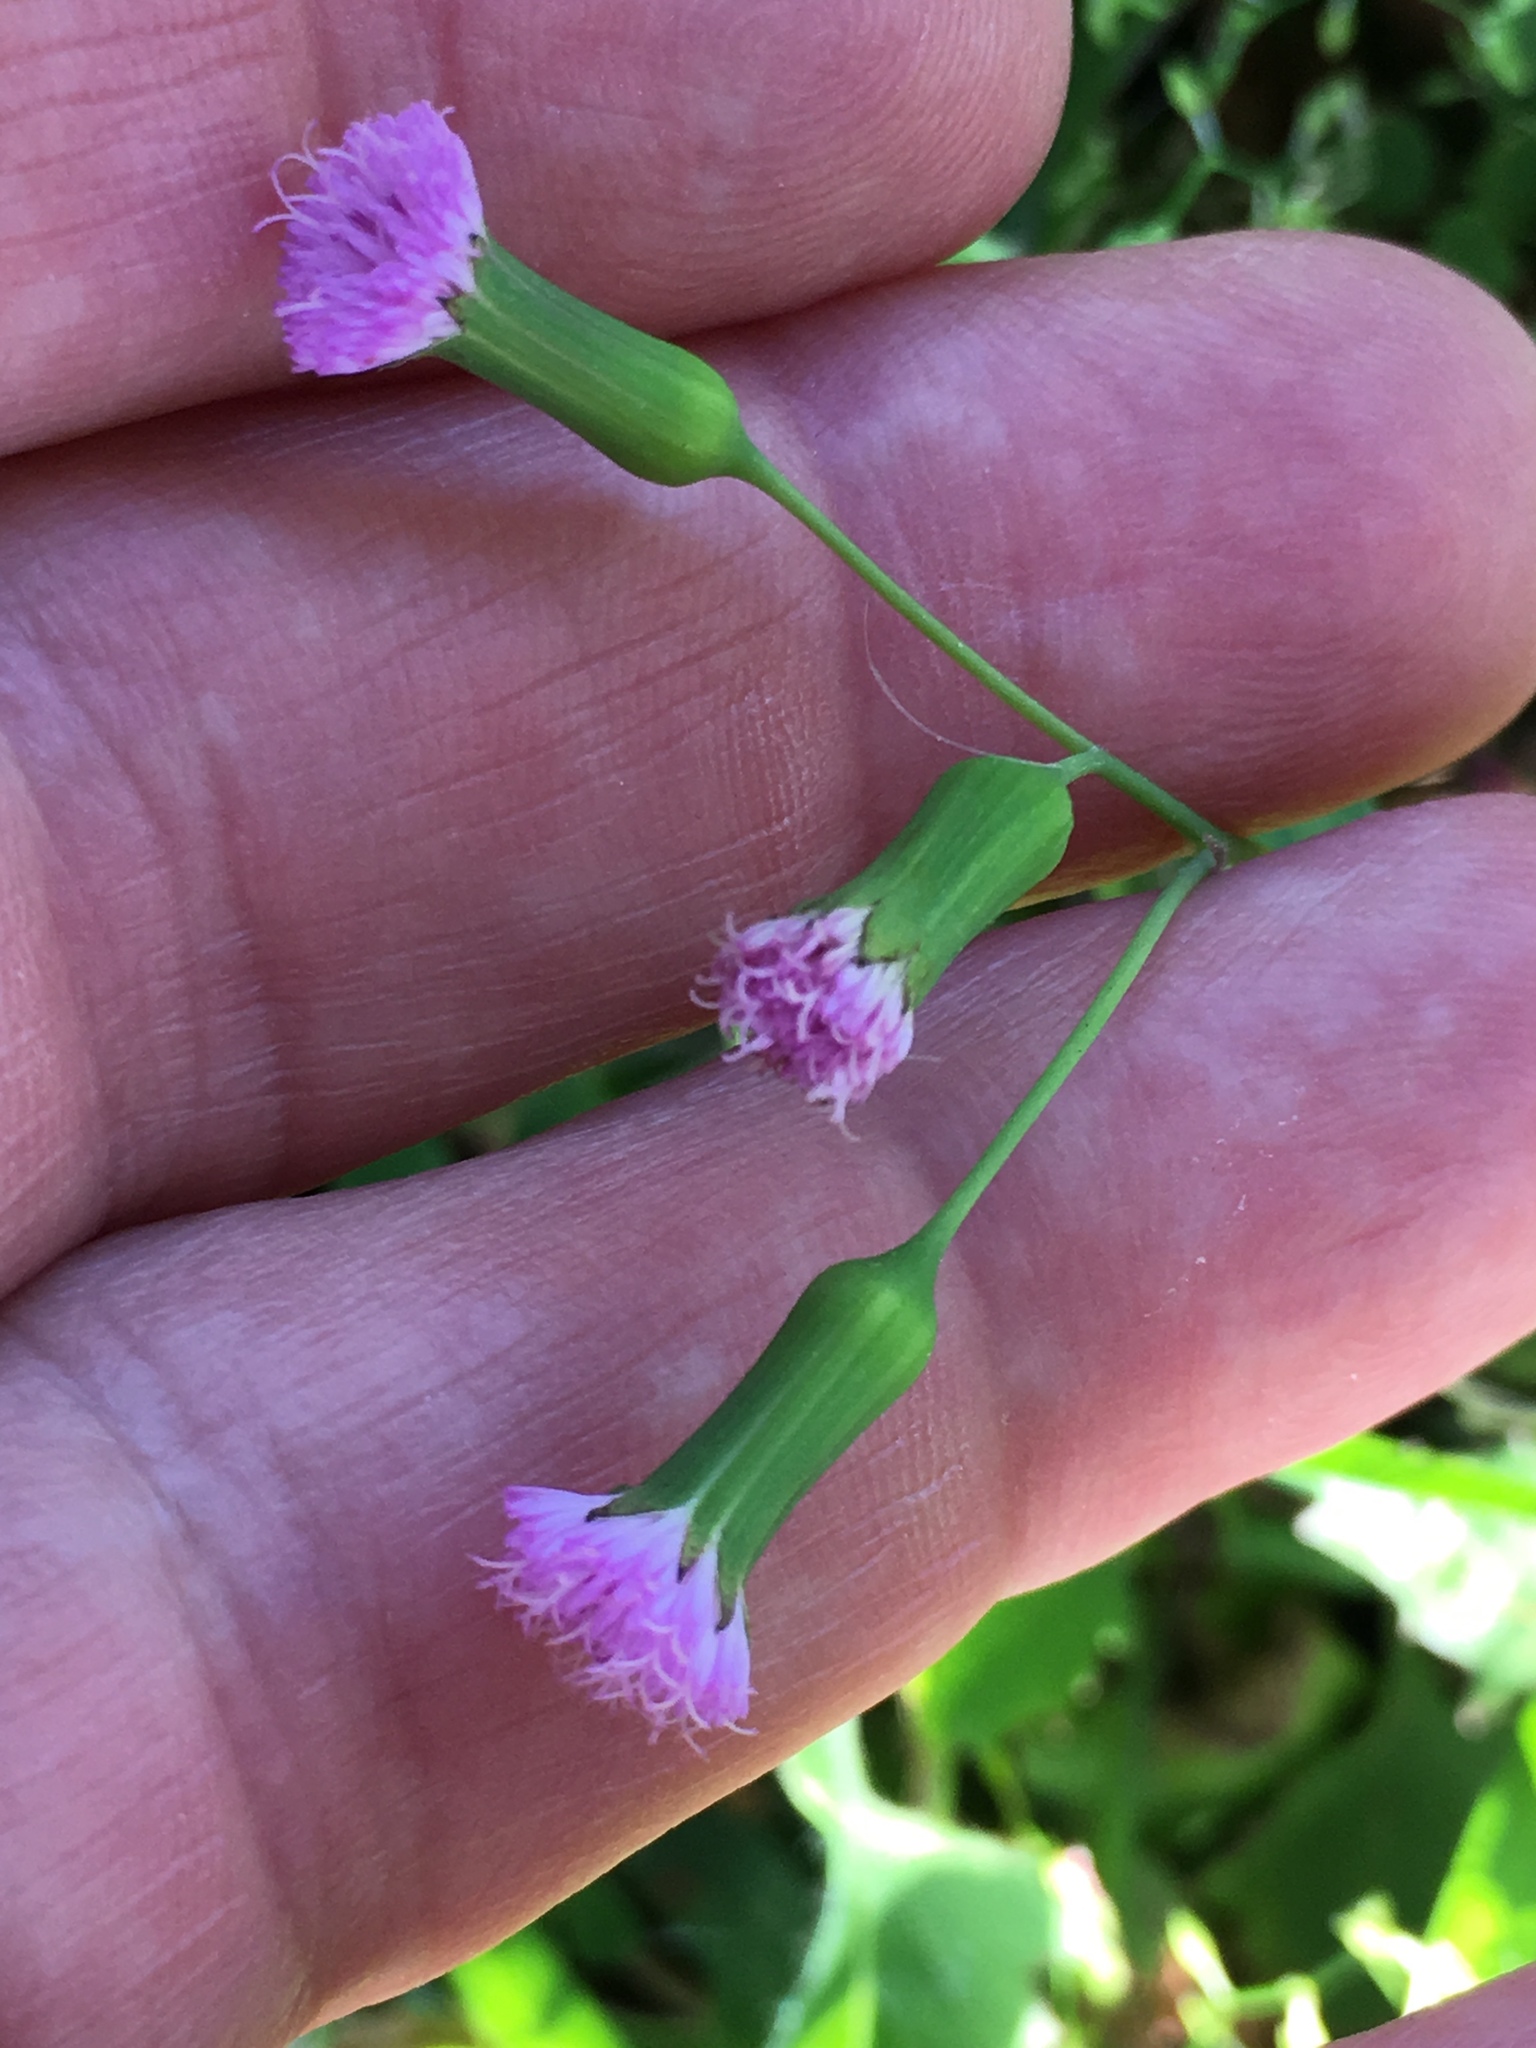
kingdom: Plantae
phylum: Tracheophyta
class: Magnoliopsida
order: Asterales
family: Asteraceae
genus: Emilia
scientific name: Emilia sonchifolia
